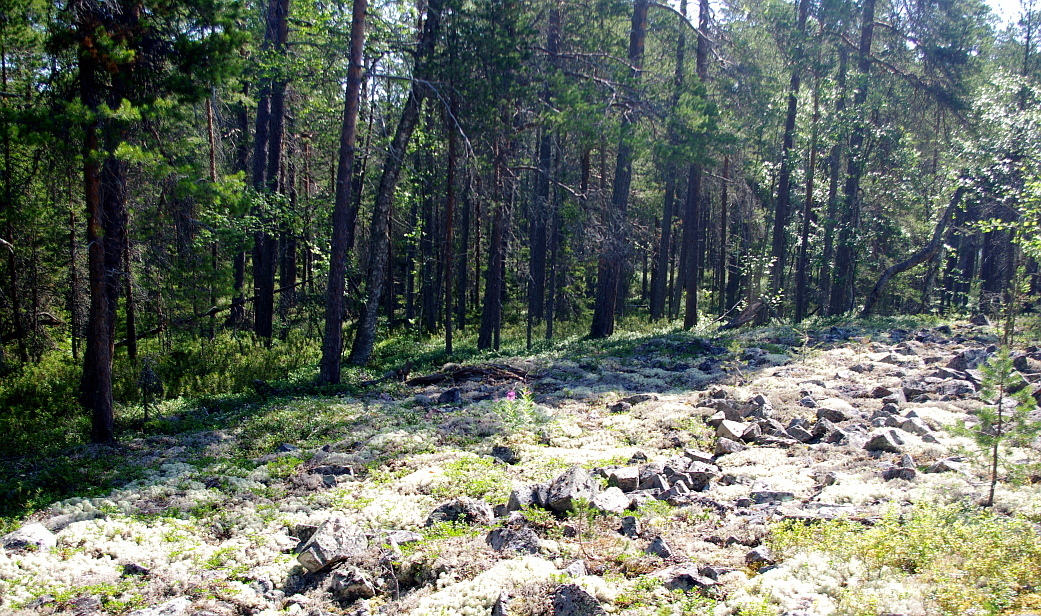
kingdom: Plantae
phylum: Tracheophyta
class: Magnoliopsida
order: Myrtales
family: Onagraceae
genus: Chamaenerion
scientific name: Chamaenerion angustifolium
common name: Fireweed
